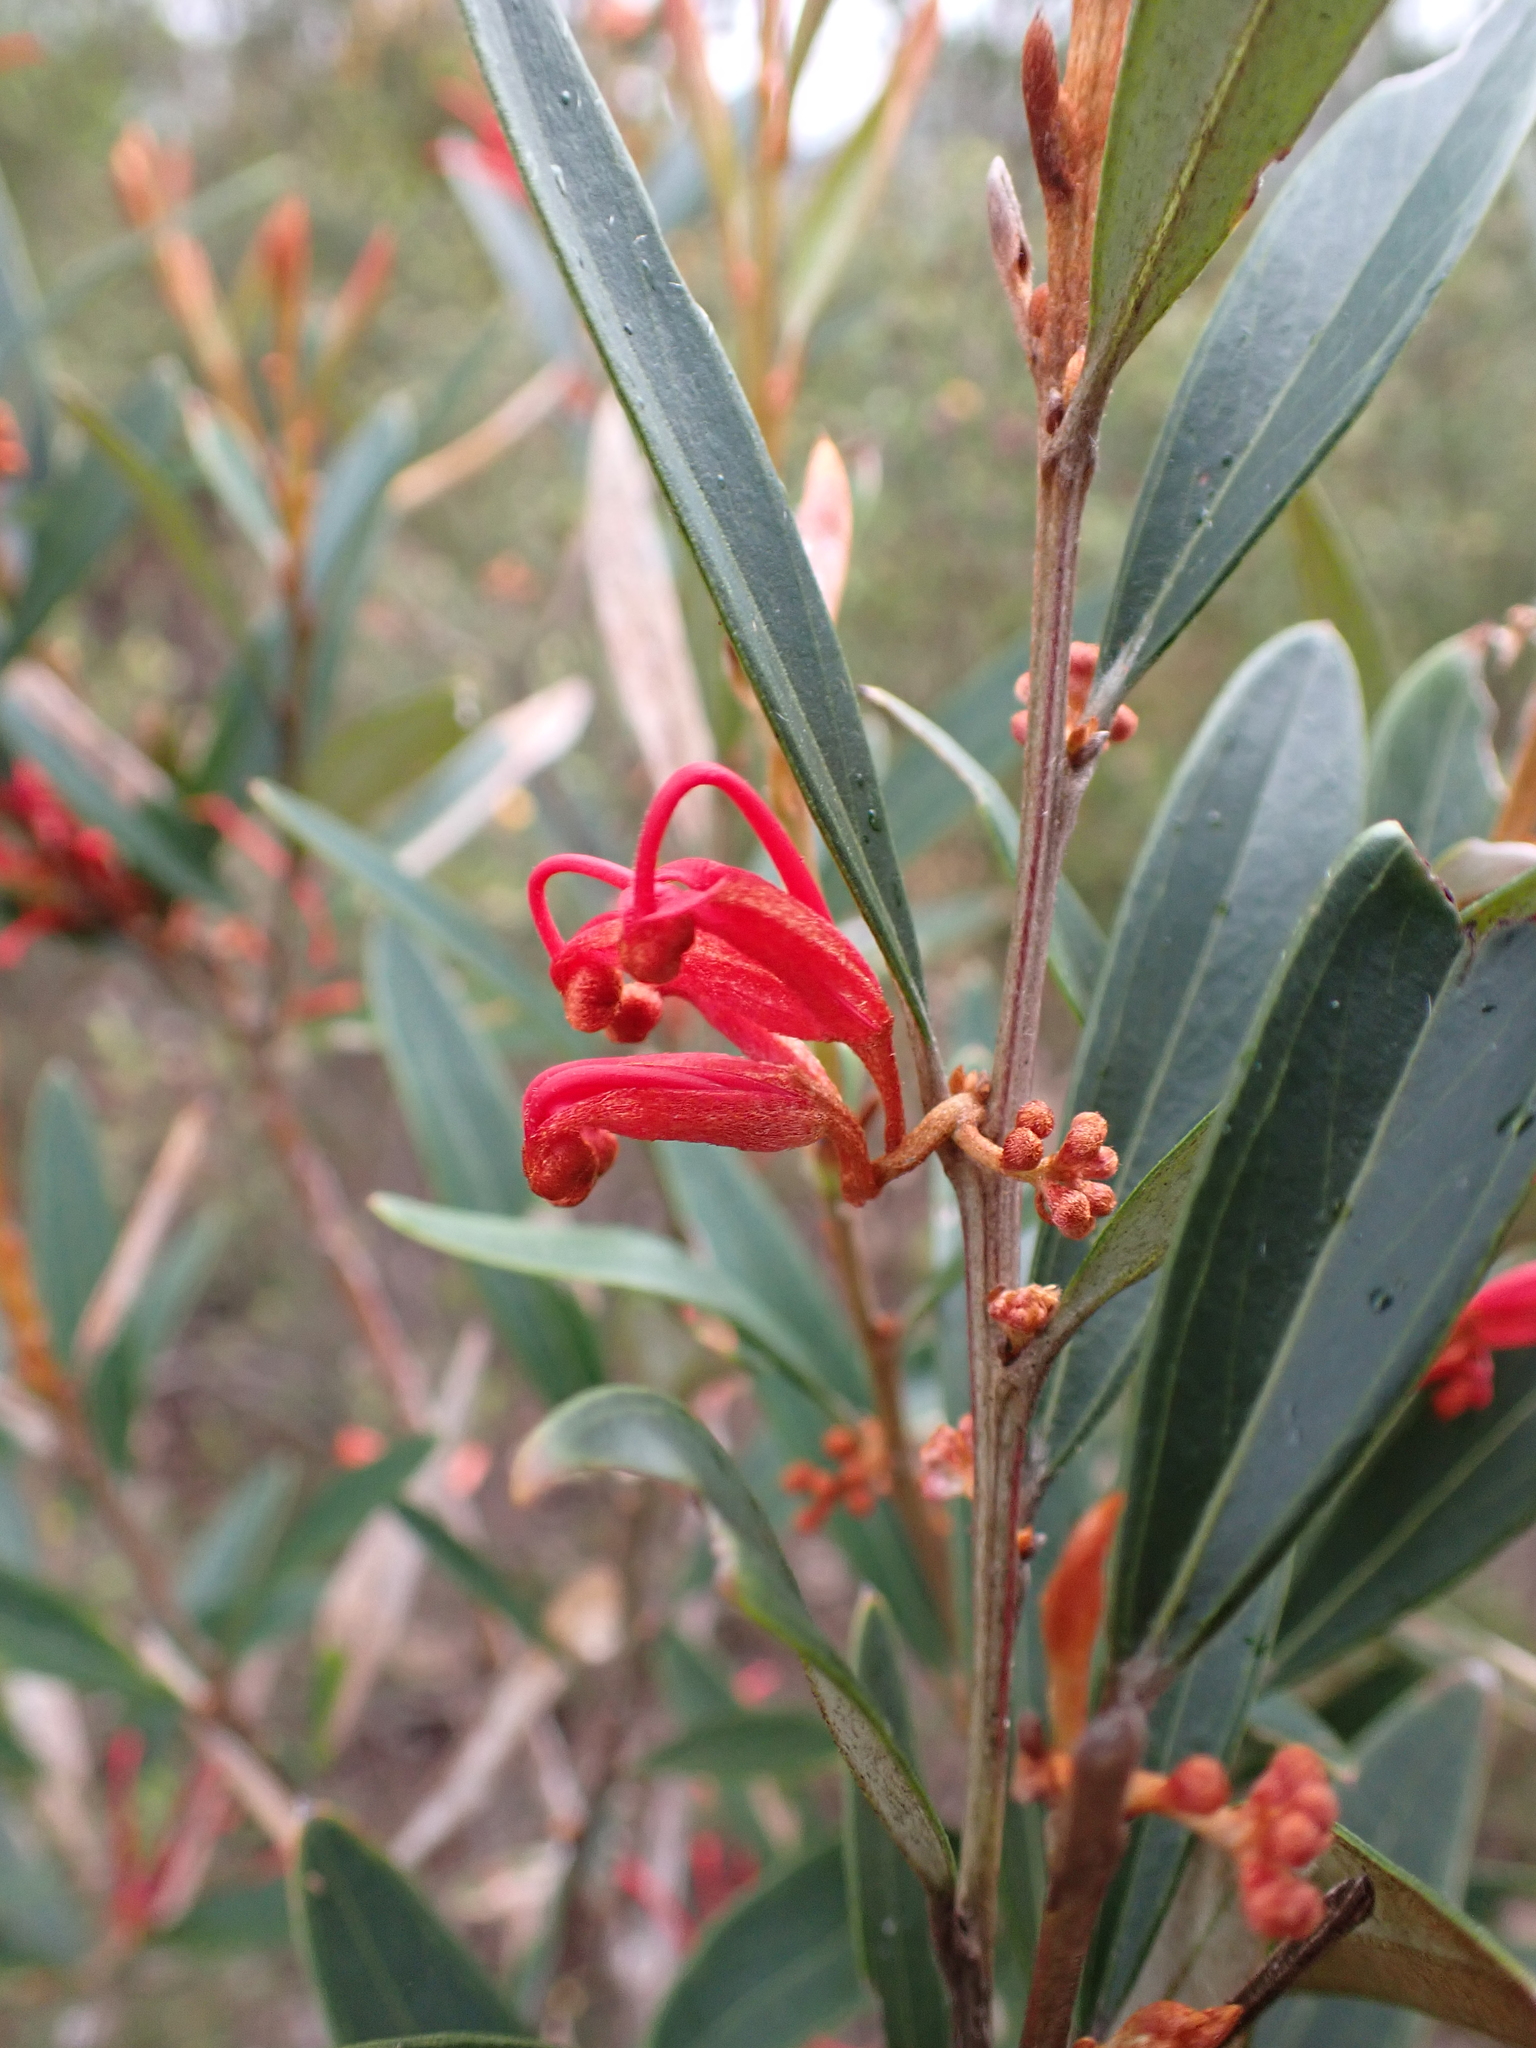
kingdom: Plantae
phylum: Tracheophyta
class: Magnoliopsida
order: Proteales
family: Proteaceae
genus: Grevillea
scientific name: Grevillea dimorpha
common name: Flame grevillea
